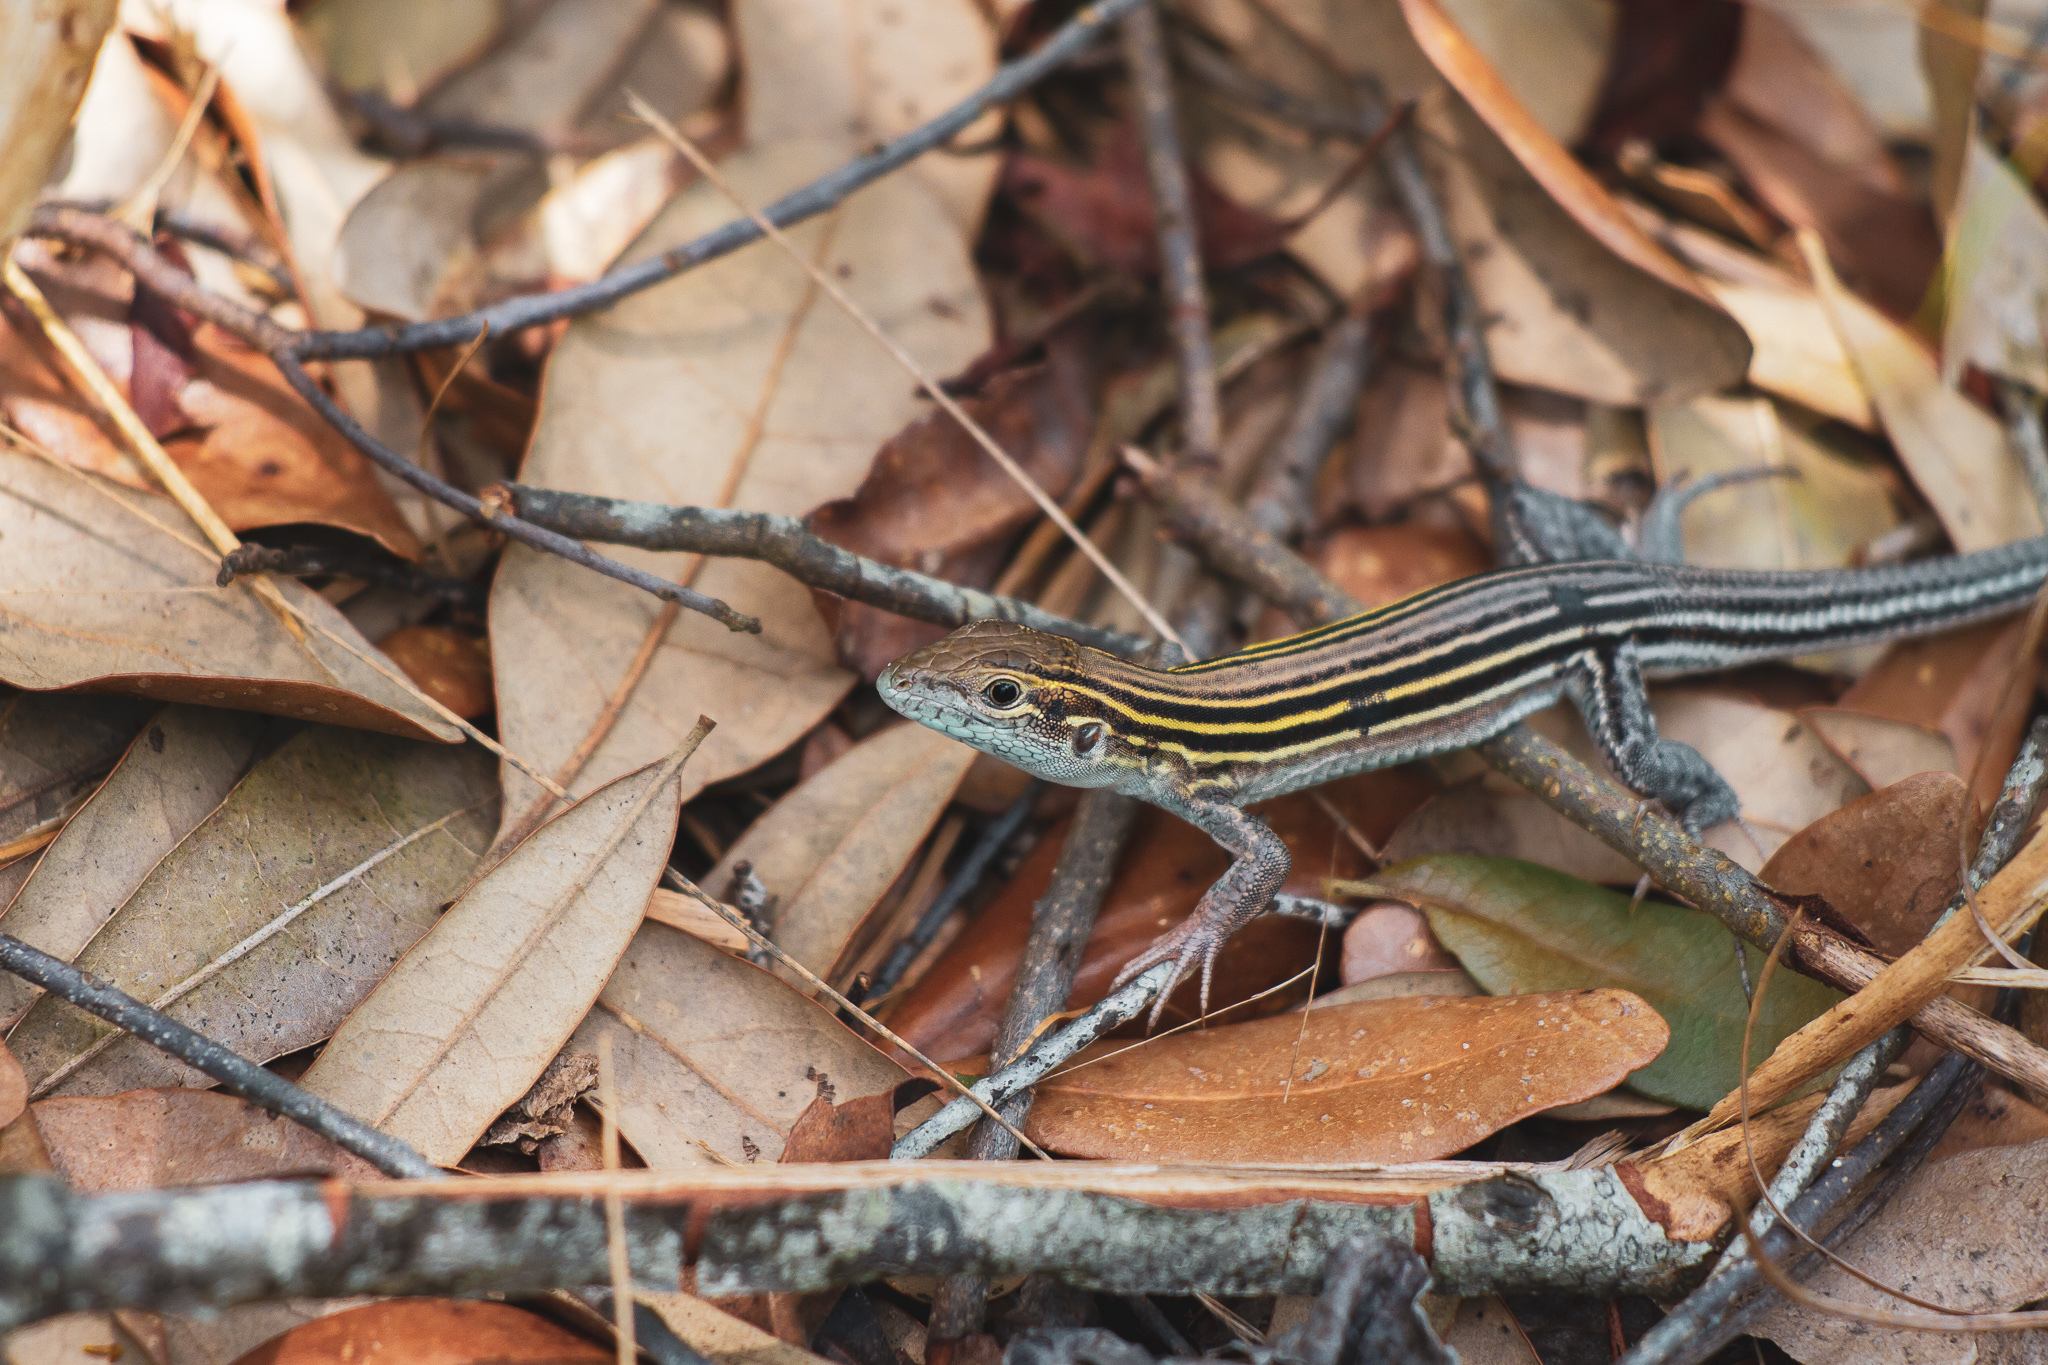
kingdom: Animalia
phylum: Chordata
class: Squamata
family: Teiidae
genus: Aspidoscelis
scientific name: Aspidoscelis sexlineatus
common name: Six-lined racerunner
